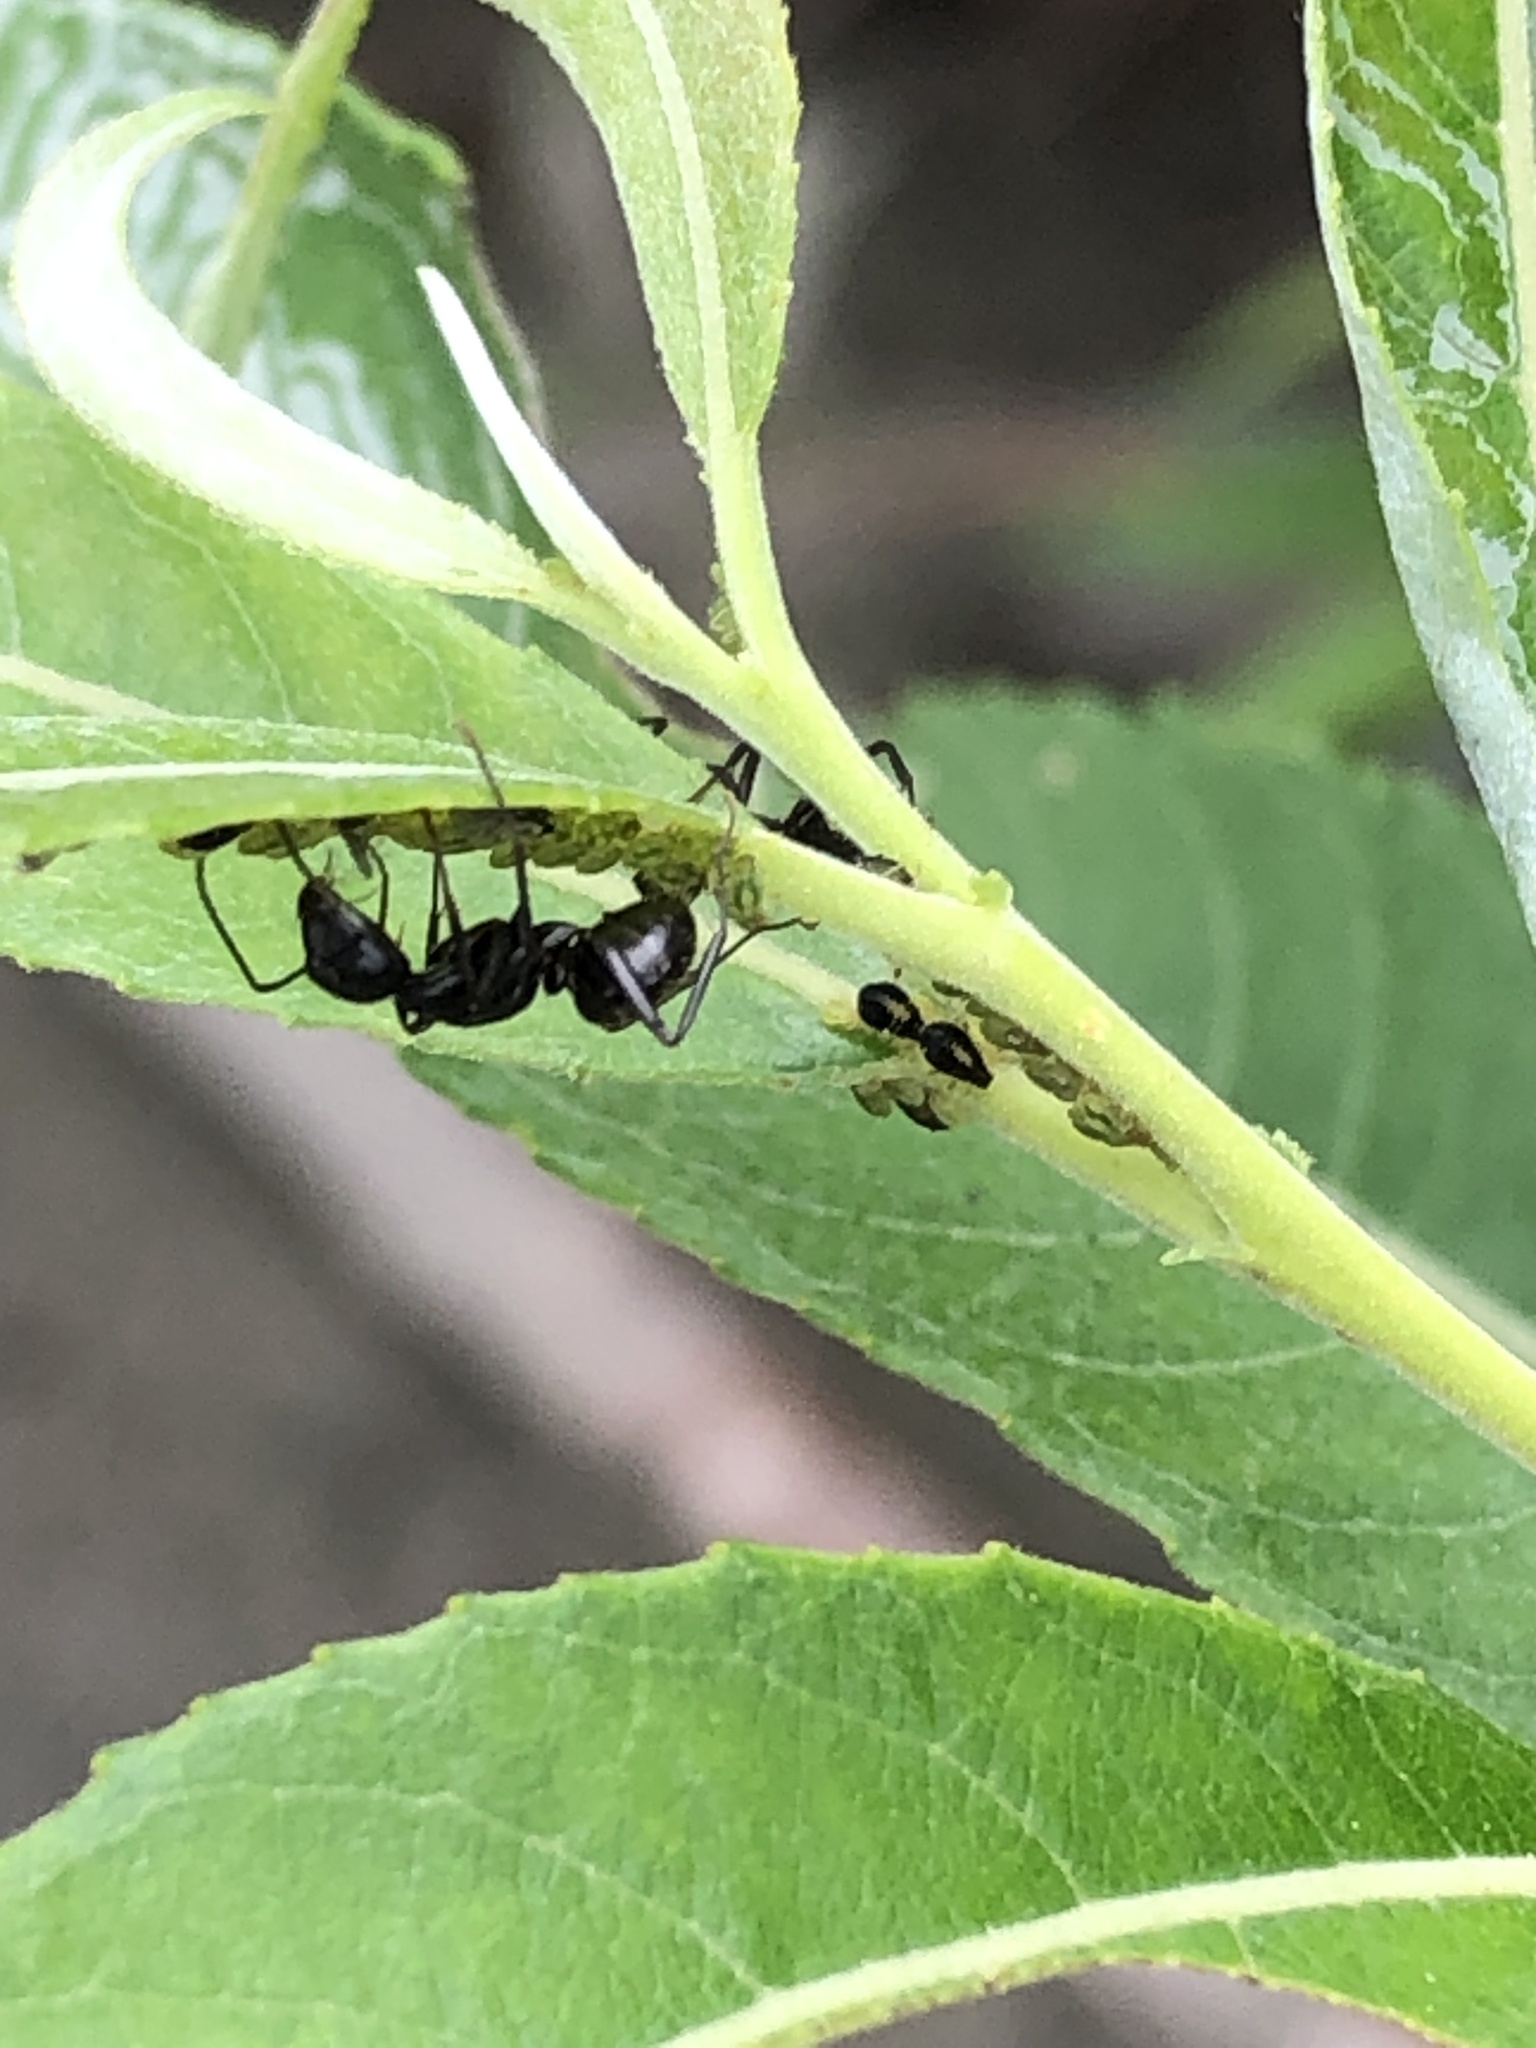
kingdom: Animalia
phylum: Arthropoda
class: Insecta
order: Hymenoptera
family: Formicidae
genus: Camponotus
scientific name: Camponotus pennsylvanicus
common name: Black carpenter ant
